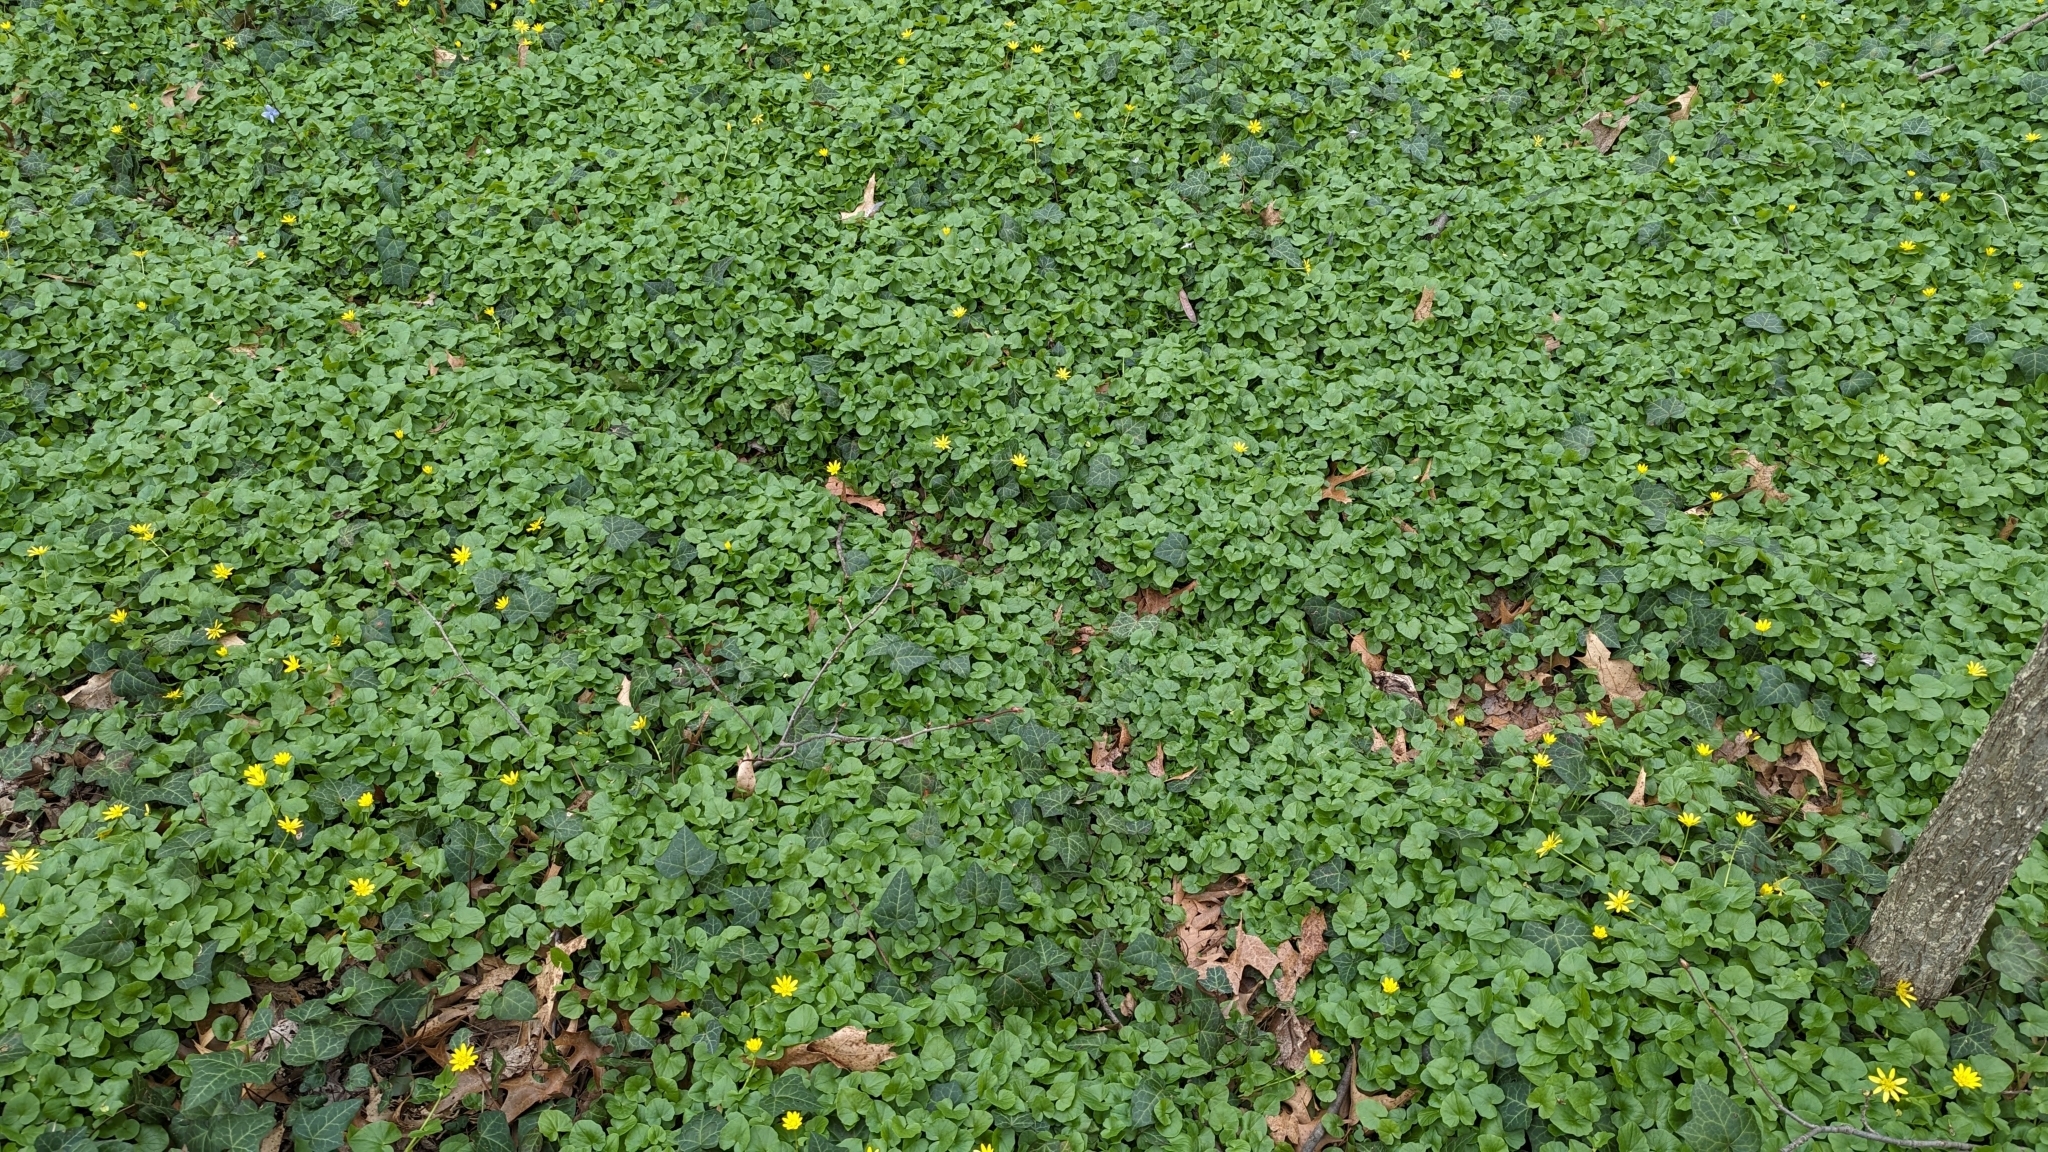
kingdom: Animalia
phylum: Chordata
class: Mammalia
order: Carnivora
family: Canidae
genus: Vulpes
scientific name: Vulpes vulpes
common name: Red fox
